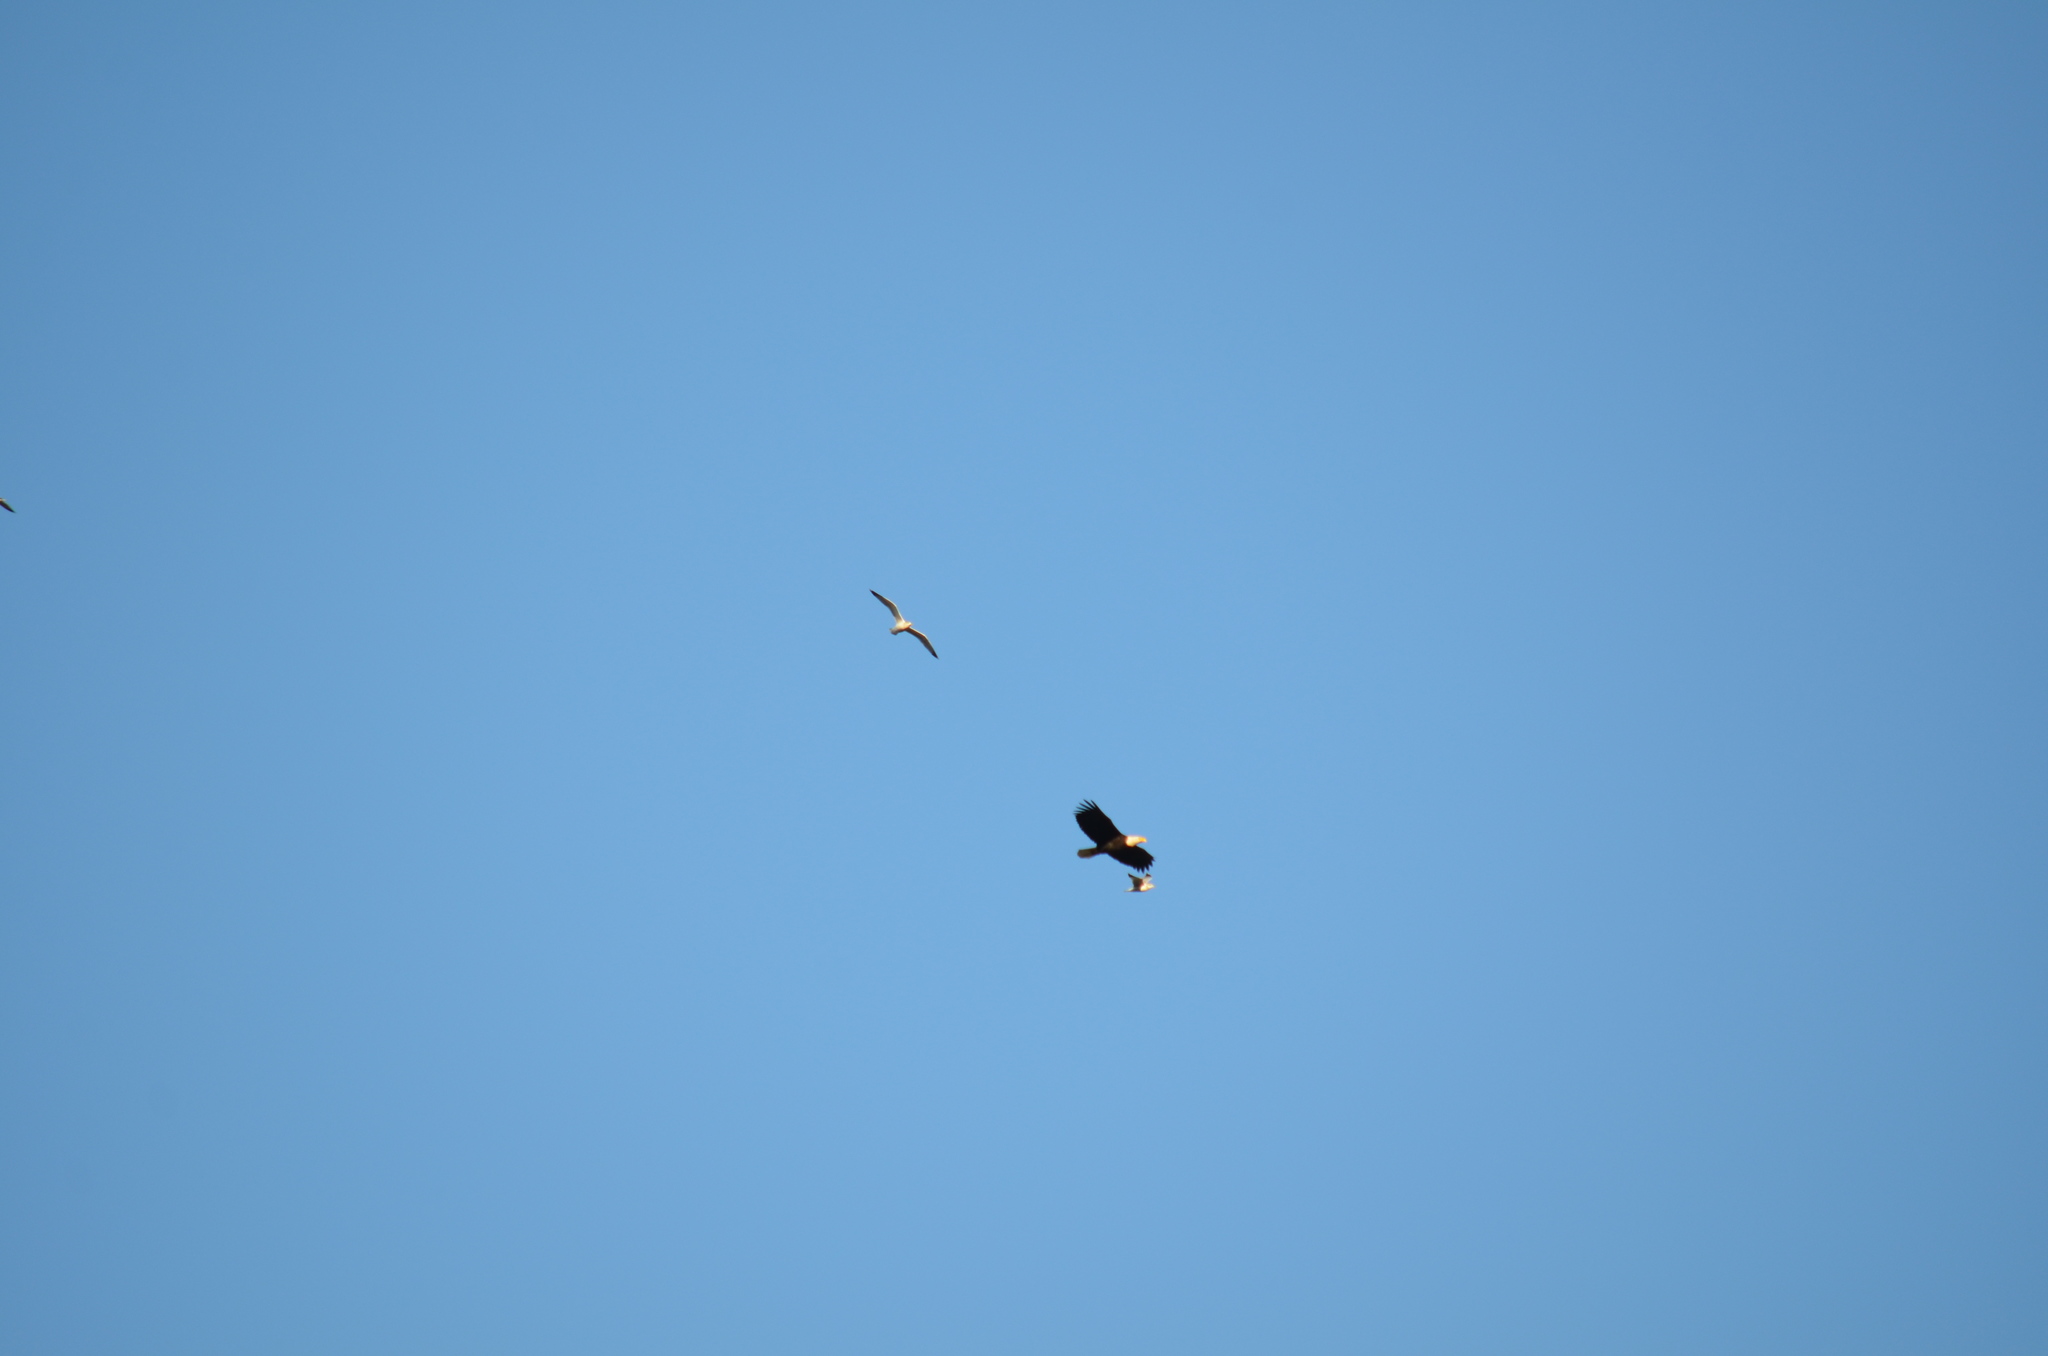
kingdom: Animalia
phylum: Chordata
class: Aves
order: Accipitriformes
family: Accipitridae
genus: Haliaeetus
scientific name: Haliaeetus leucocephalus
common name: Bald eagle
